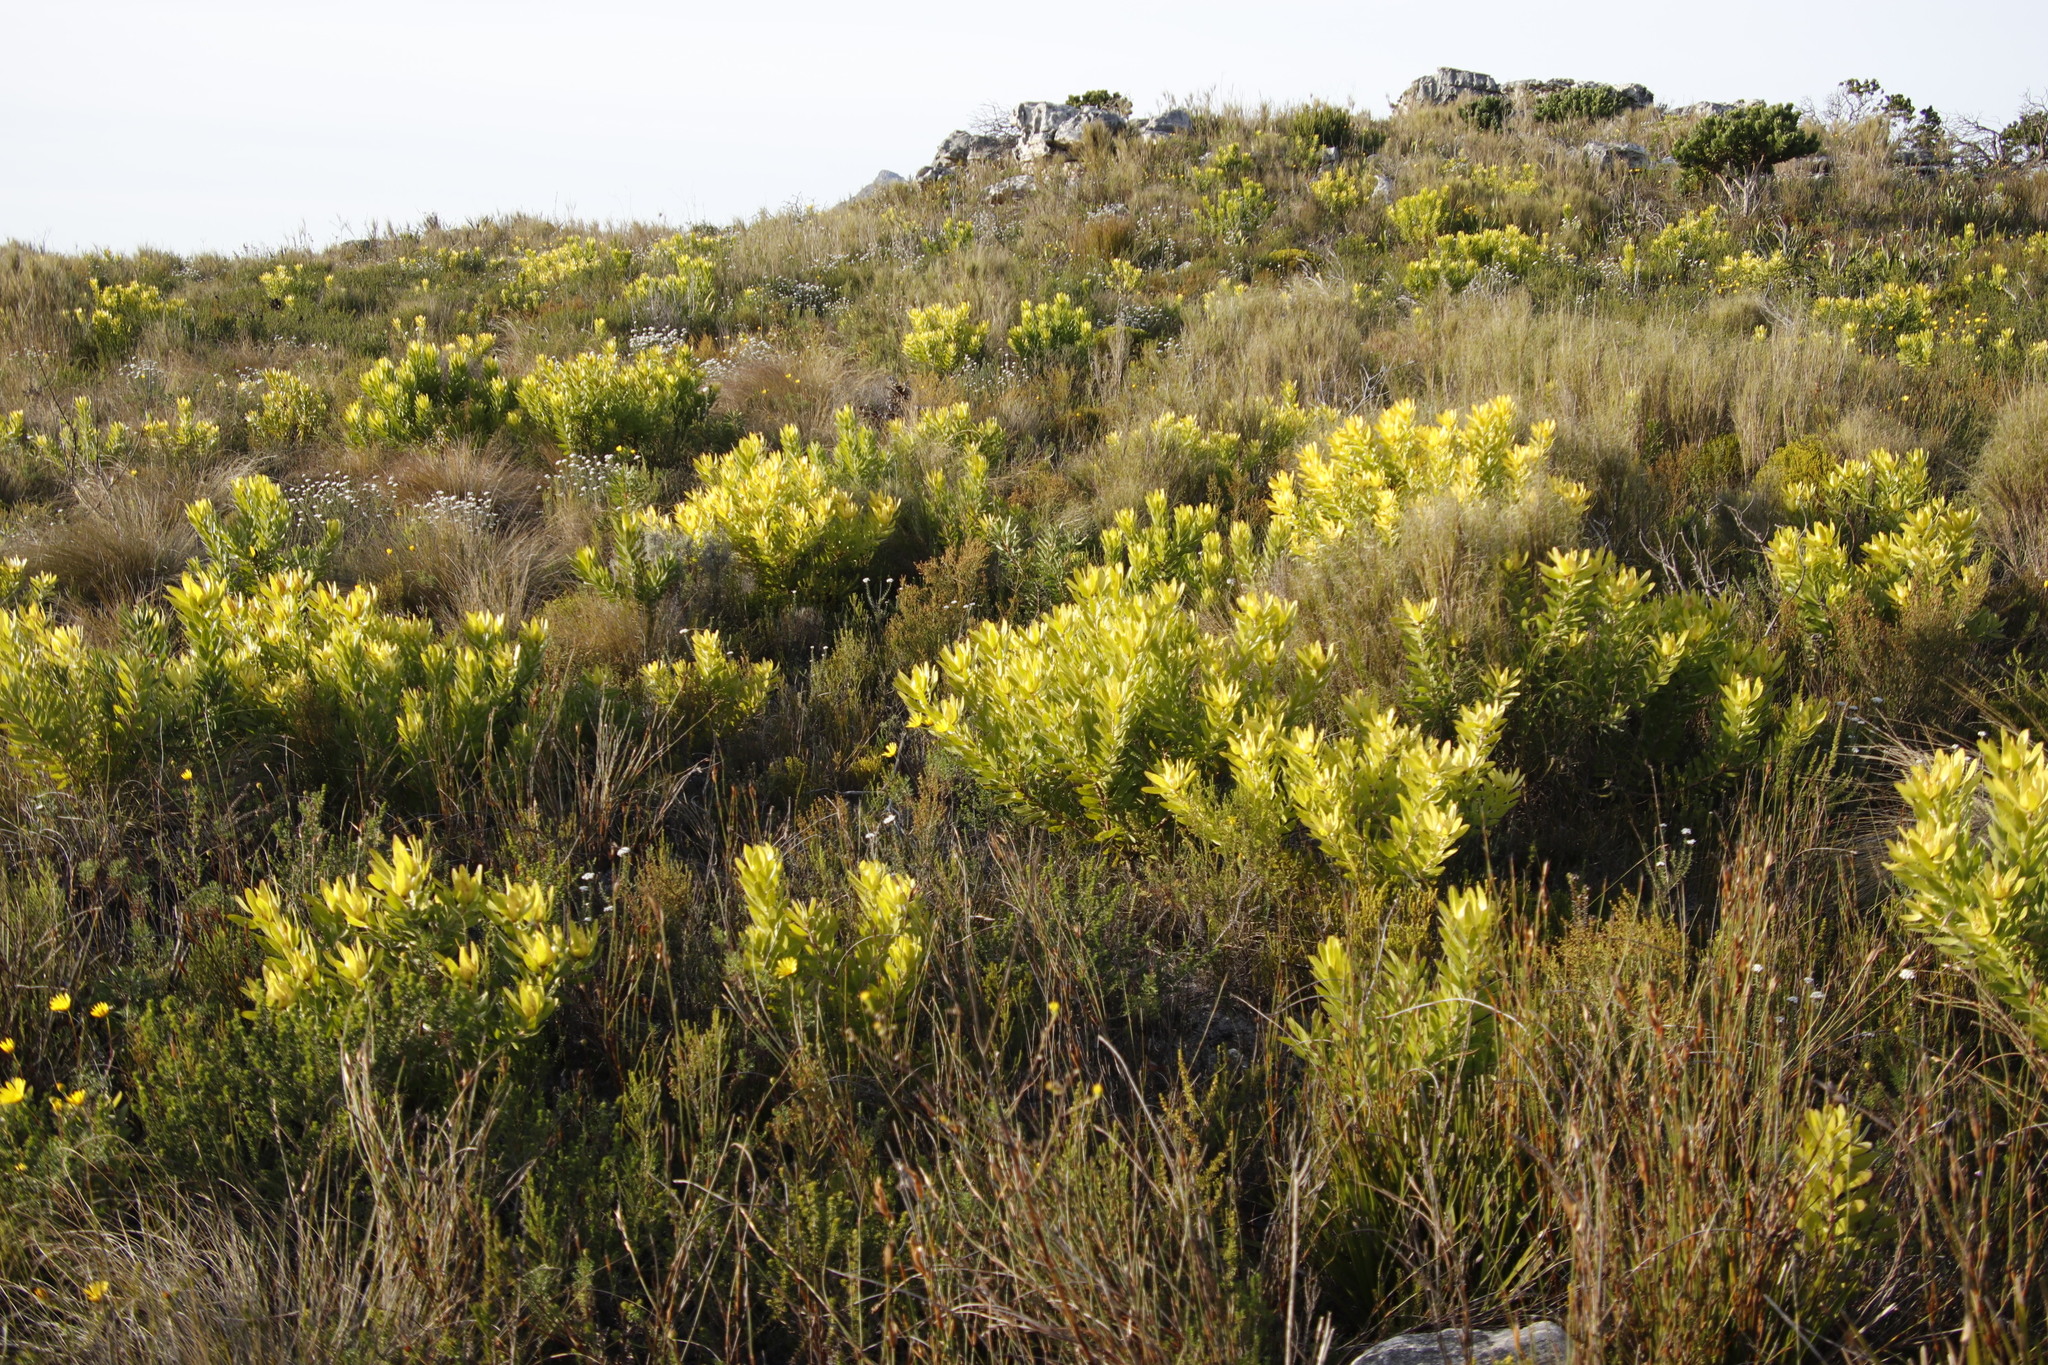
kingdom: Plantae
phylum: Tracheophyta
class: Magnoliopsida
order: Proteales
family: Proteaceae
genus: Leucadendron
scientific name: Leucadendron laureolum
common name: Golden sunshinebush
